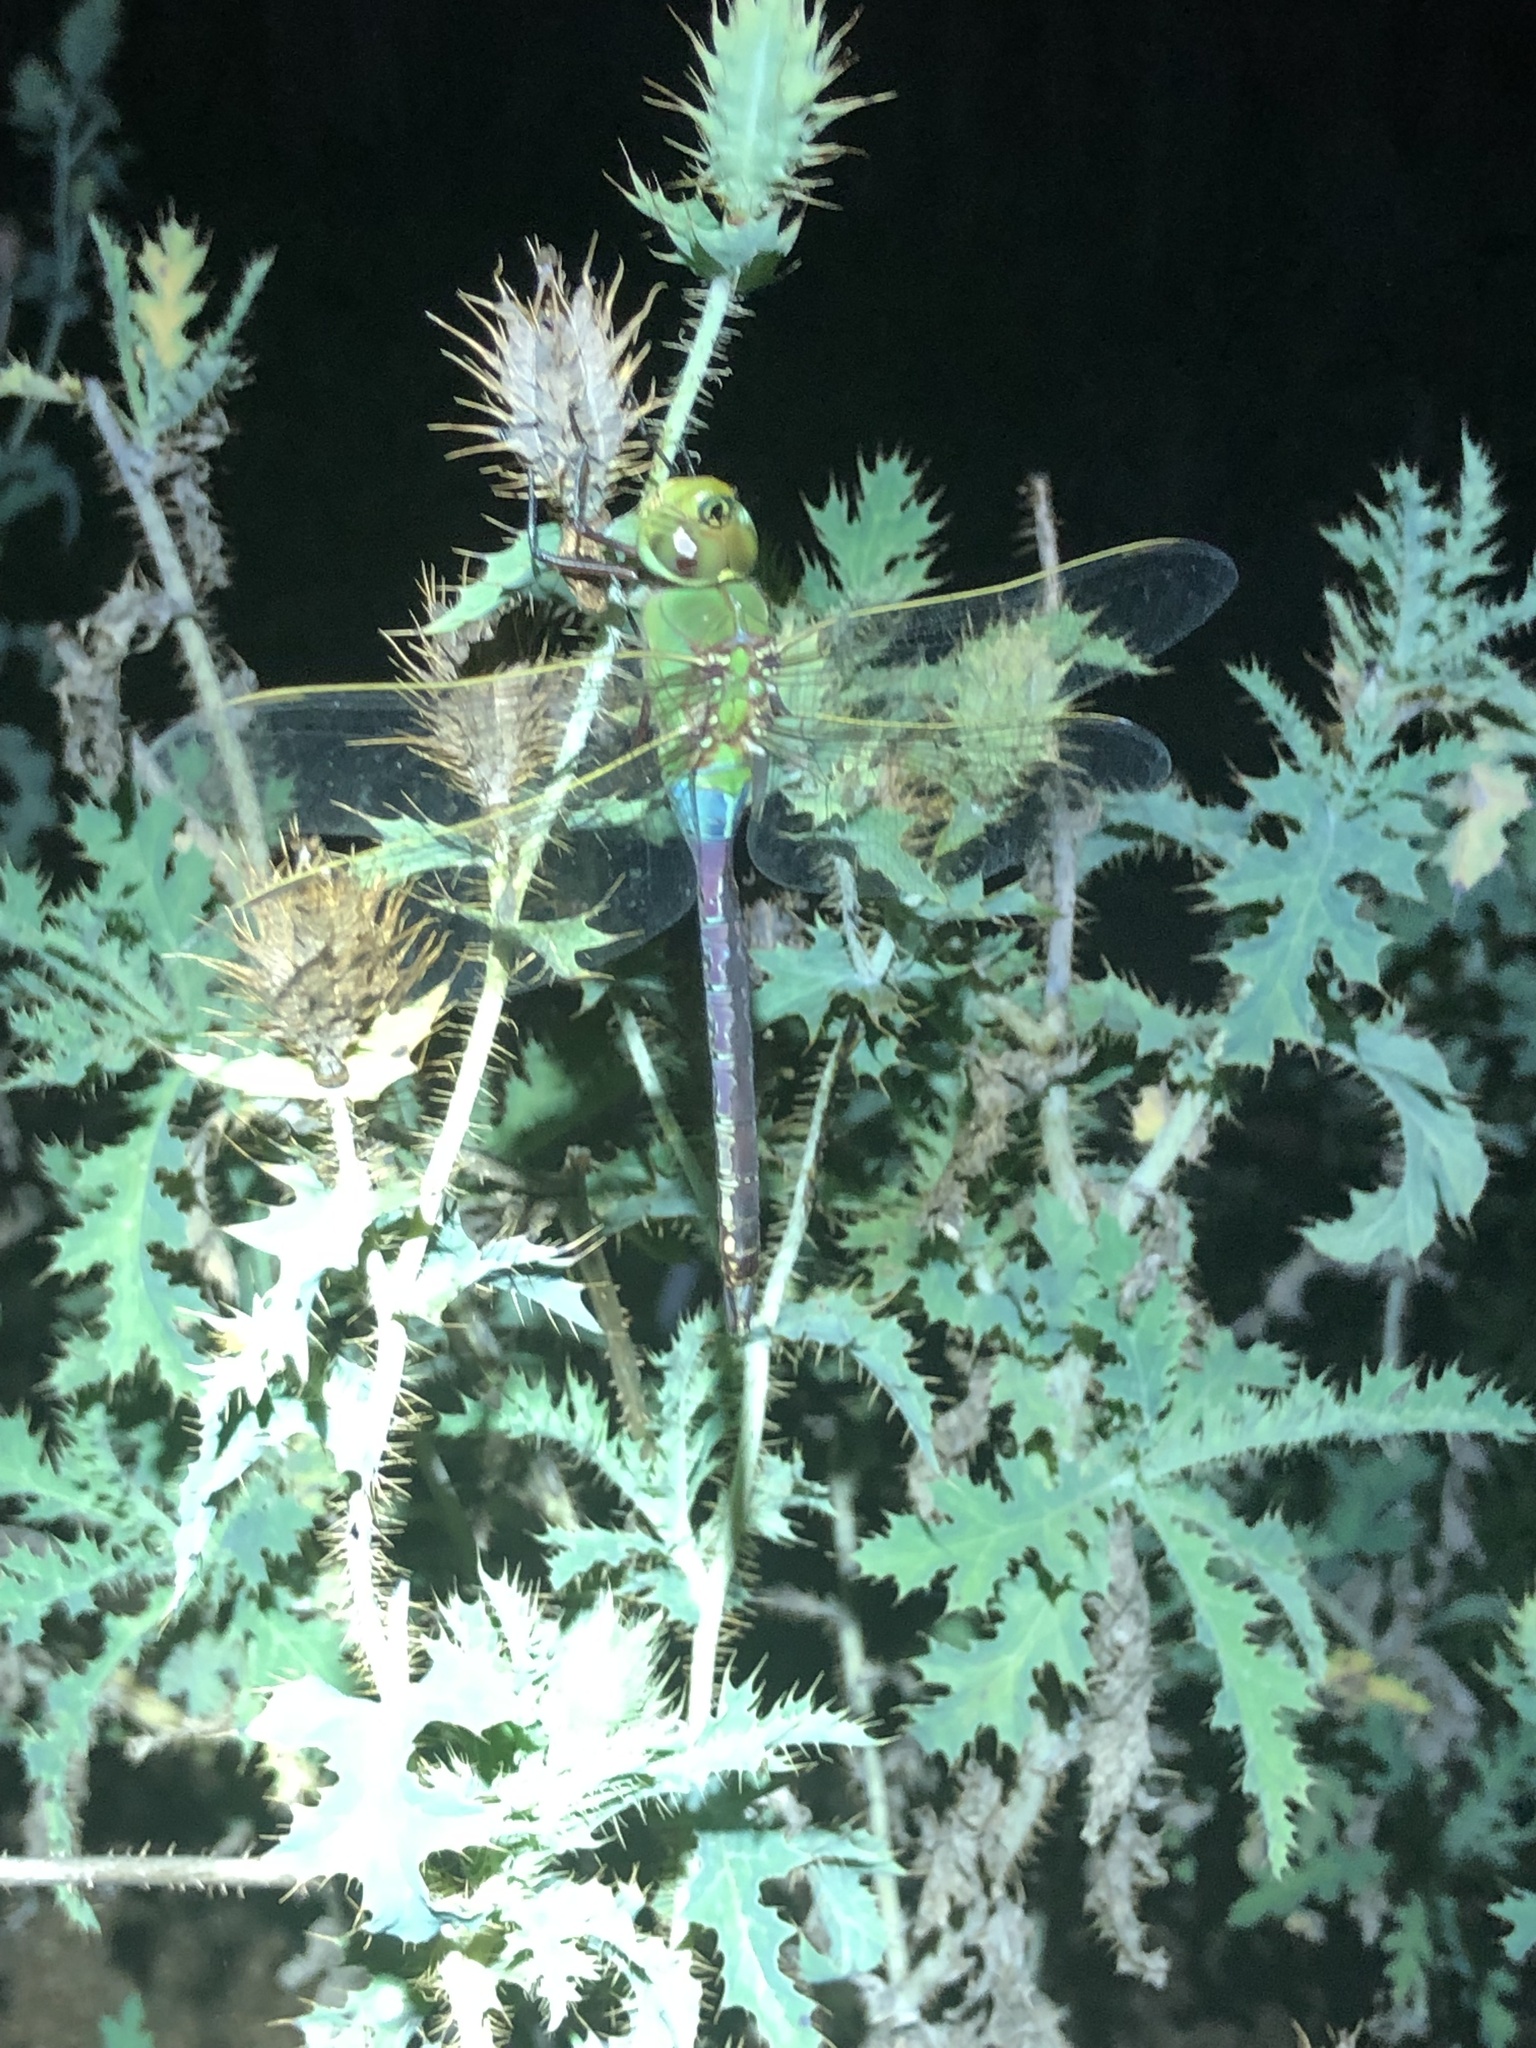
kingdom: Animalia
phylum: Arthropoda
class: Insecta
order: Odonata
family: Aeshnidae
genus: Anax
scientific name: Anax junius
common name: Common green darner
